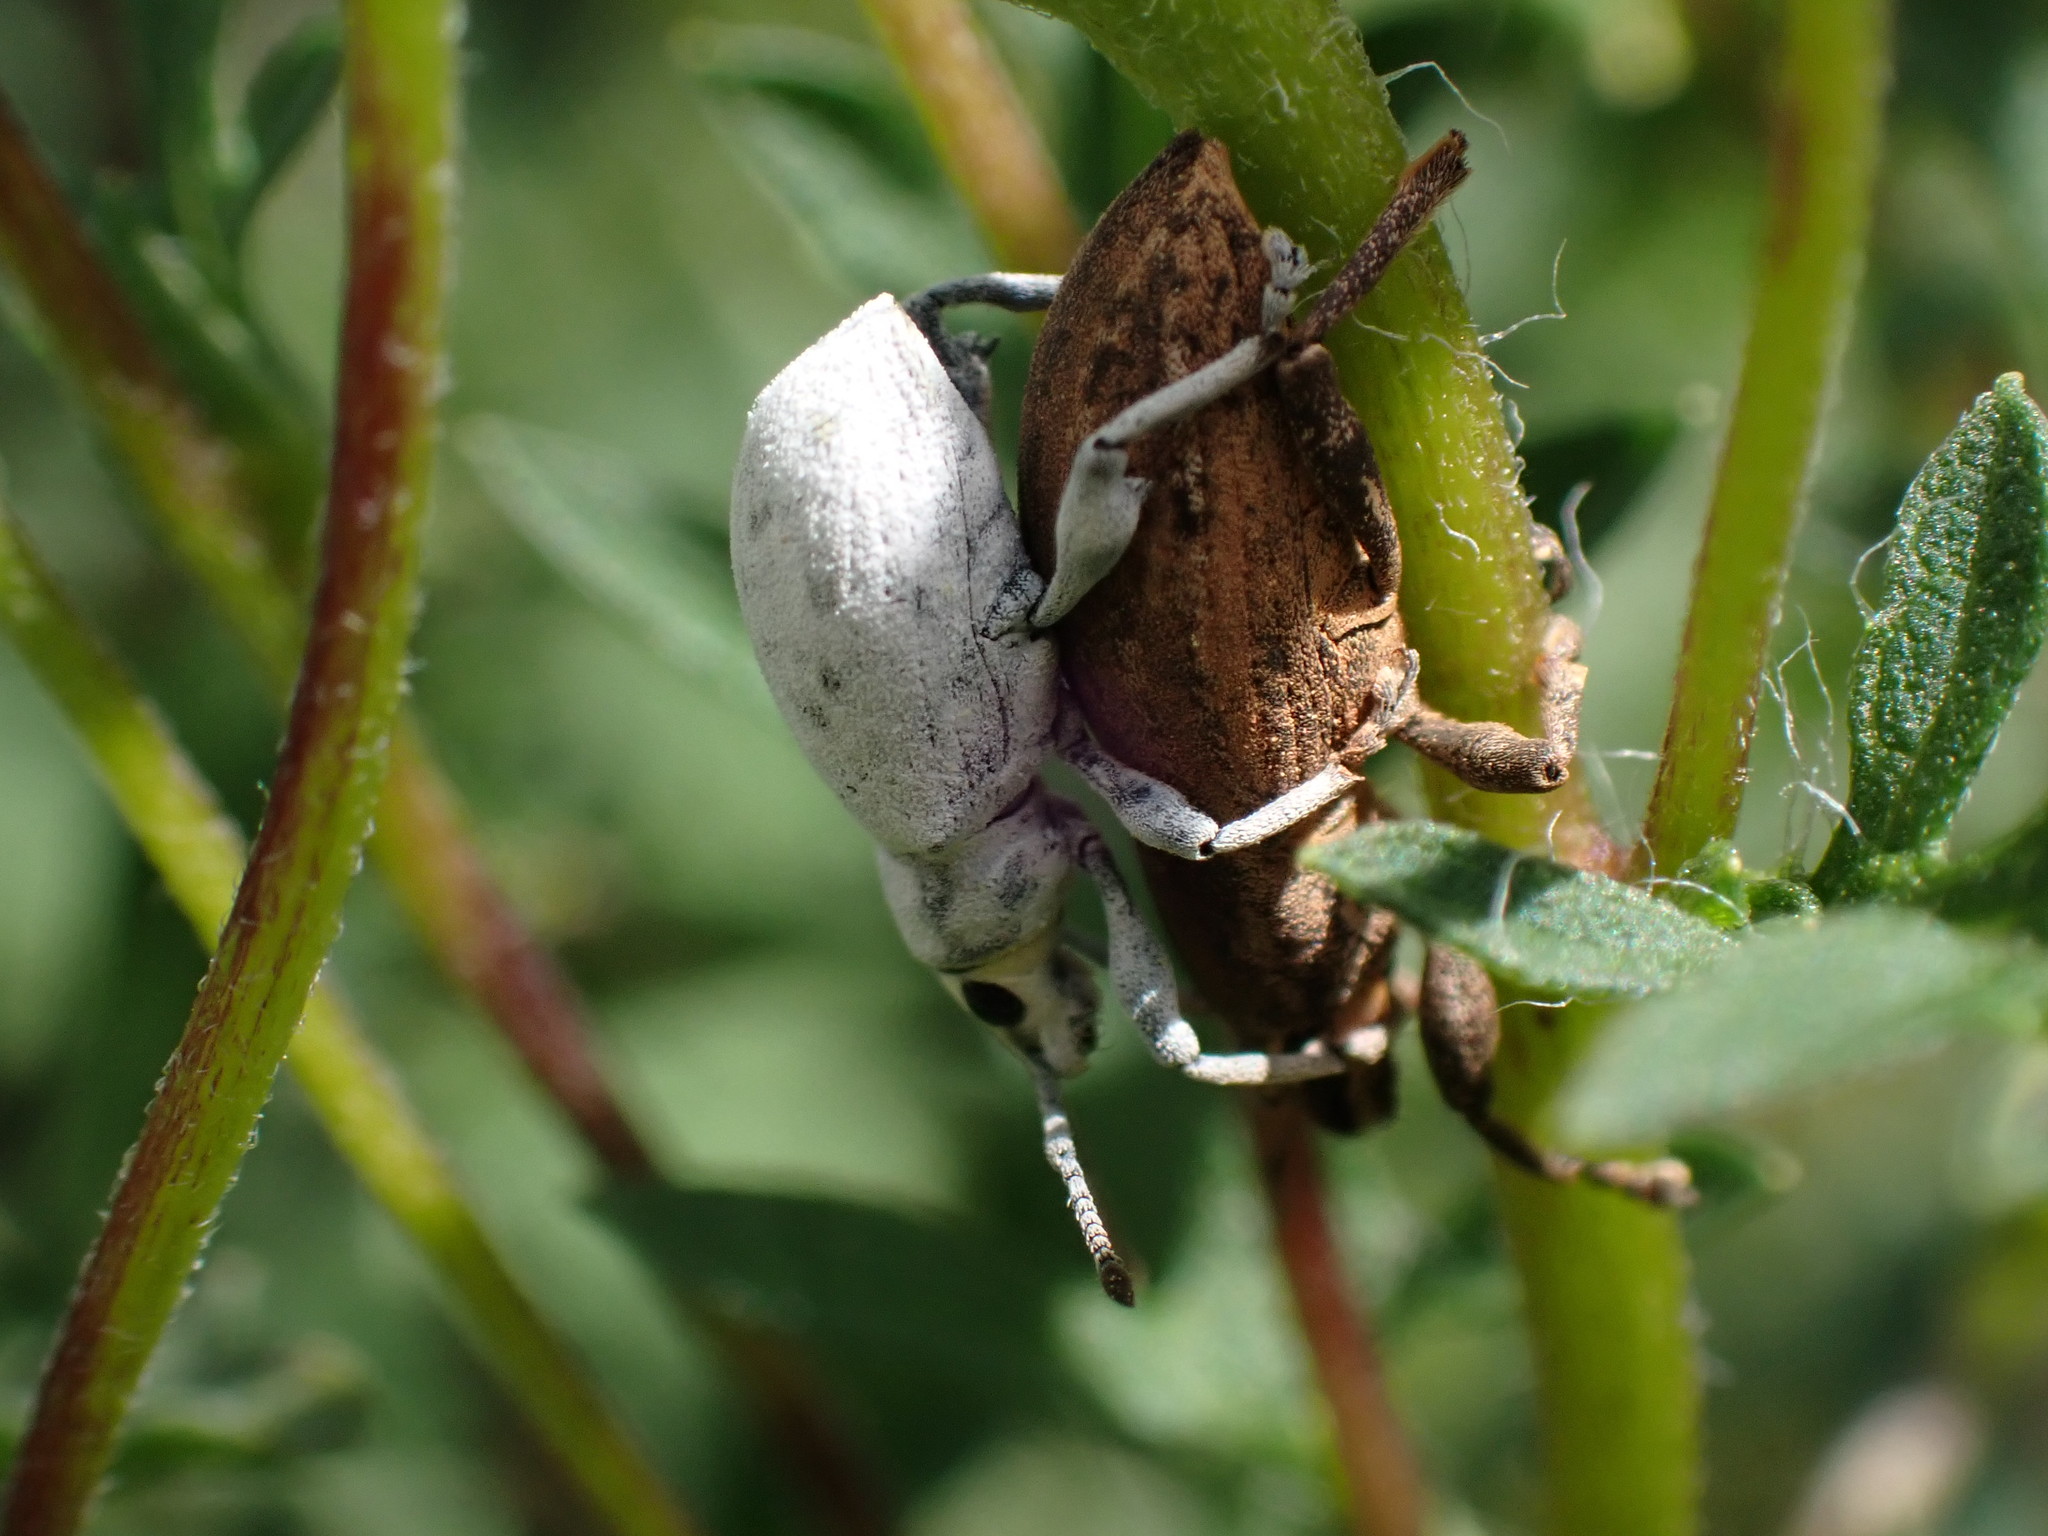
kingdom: Animalia
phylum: Arthropoda
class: Insecta
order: Coleoptera
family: Curculionidae
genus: Tanymecus
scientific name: Tanymecus lacaena
